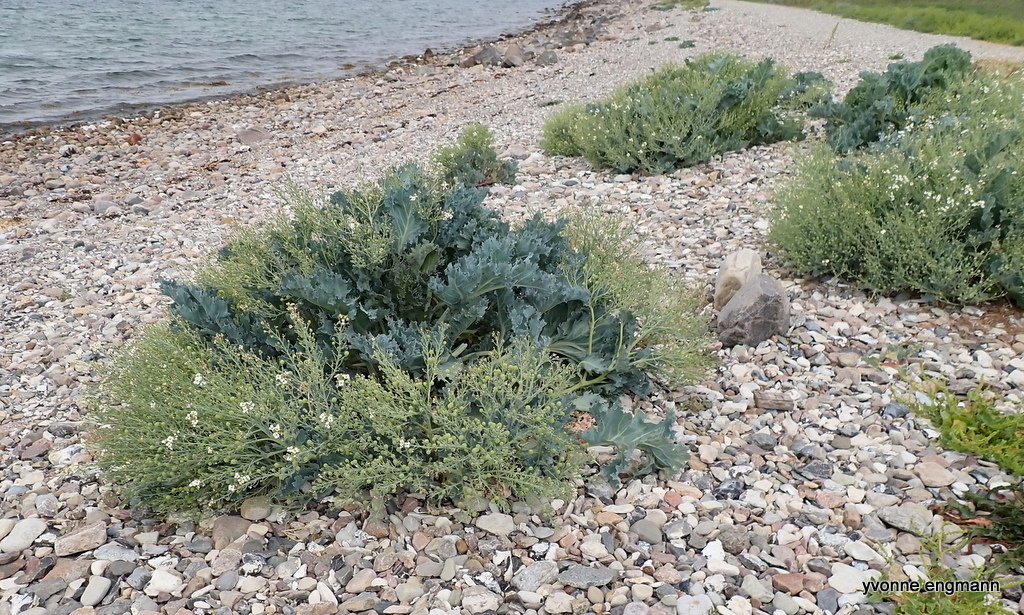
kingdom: Plantae
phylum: Tracheophyta
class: Magnoliopsida
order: Brassicales
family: Brassicaceae
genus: Crambe
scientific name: Crambe maritima
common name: Sea-kale
